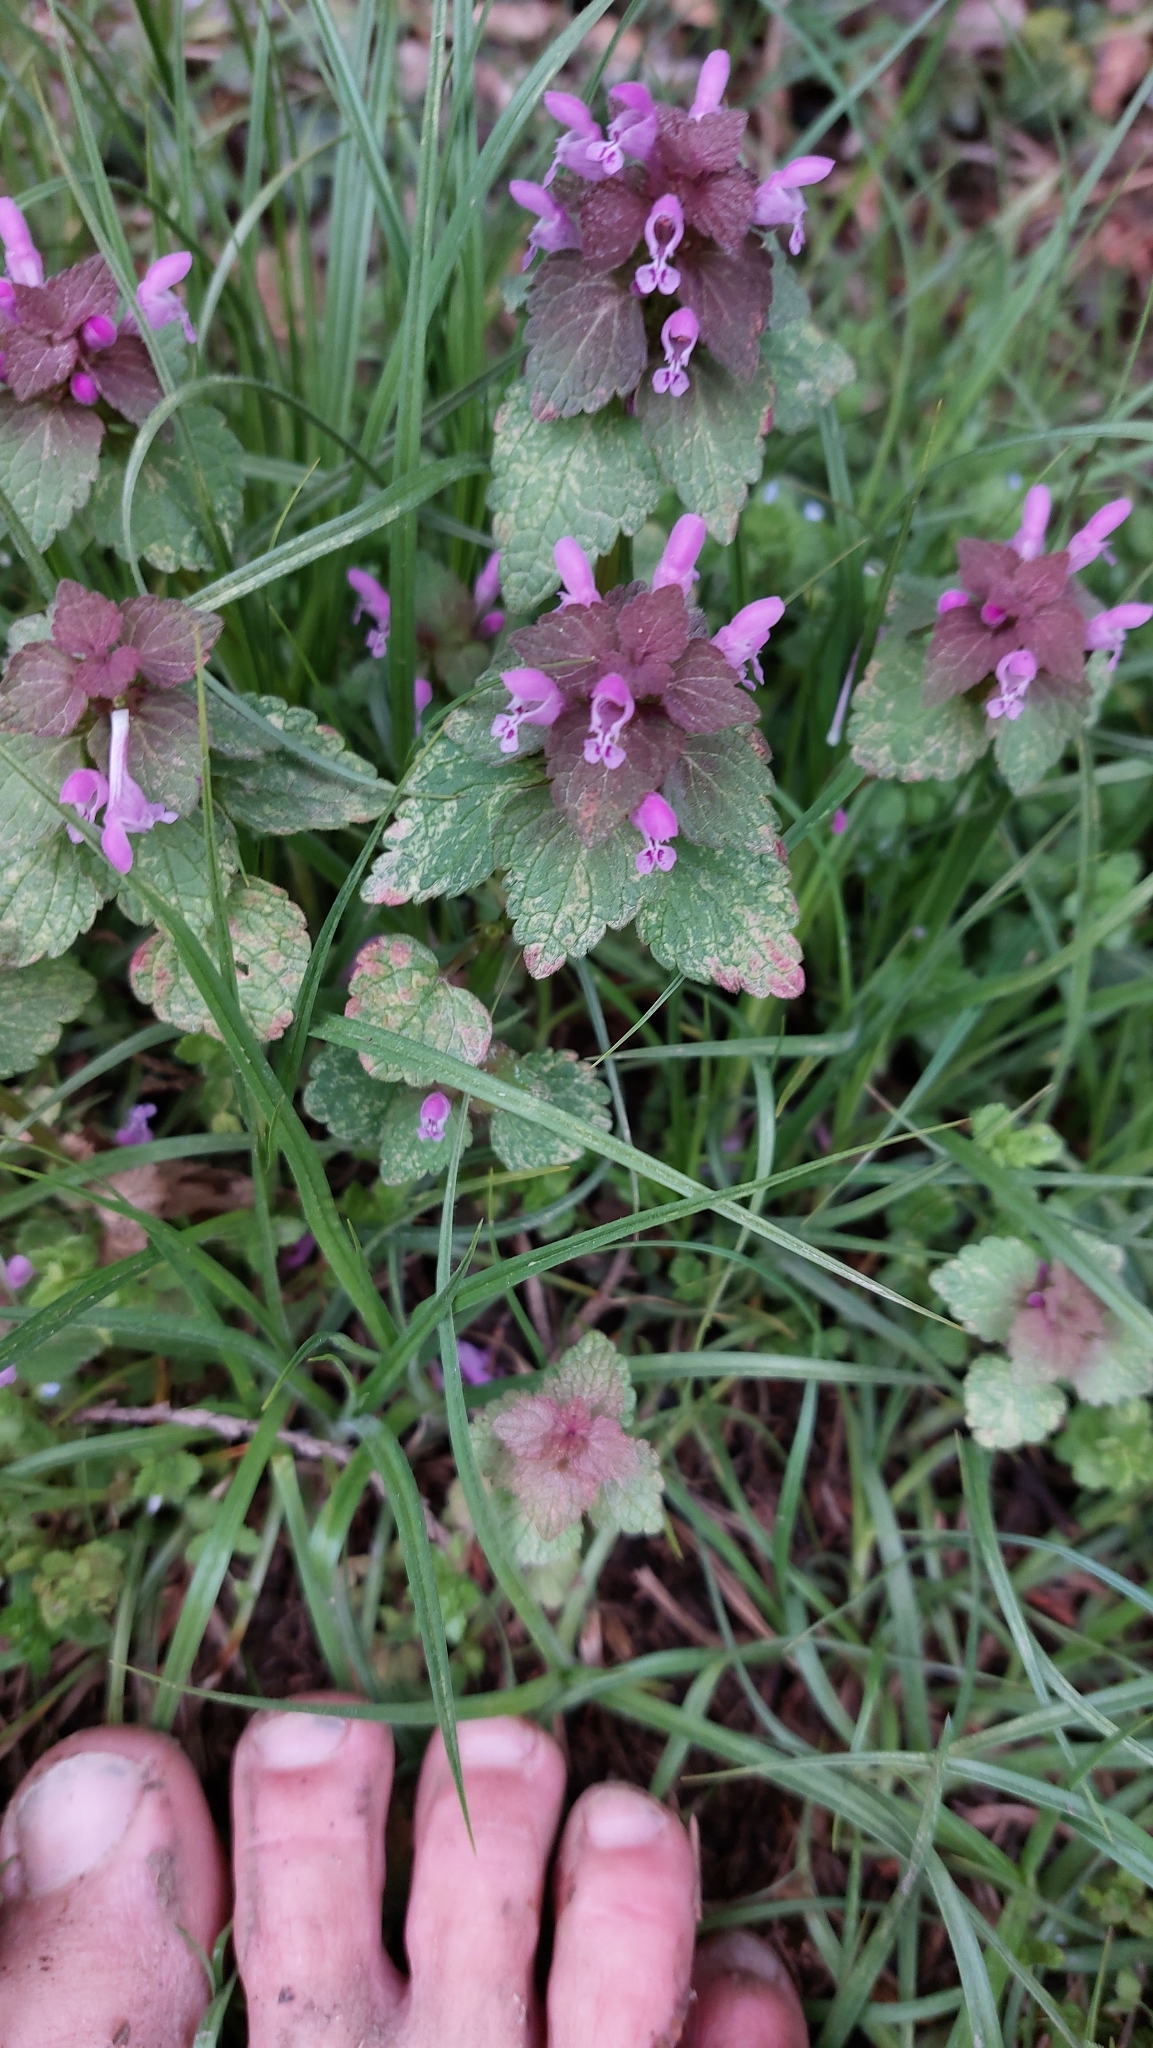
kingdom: Plantae
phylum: Tracheophyta
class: Magnoliopsida
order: Lamiales
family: Lamiaceae
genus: Lamium
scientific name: Lamium purpureum
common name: Red dead-nettle
